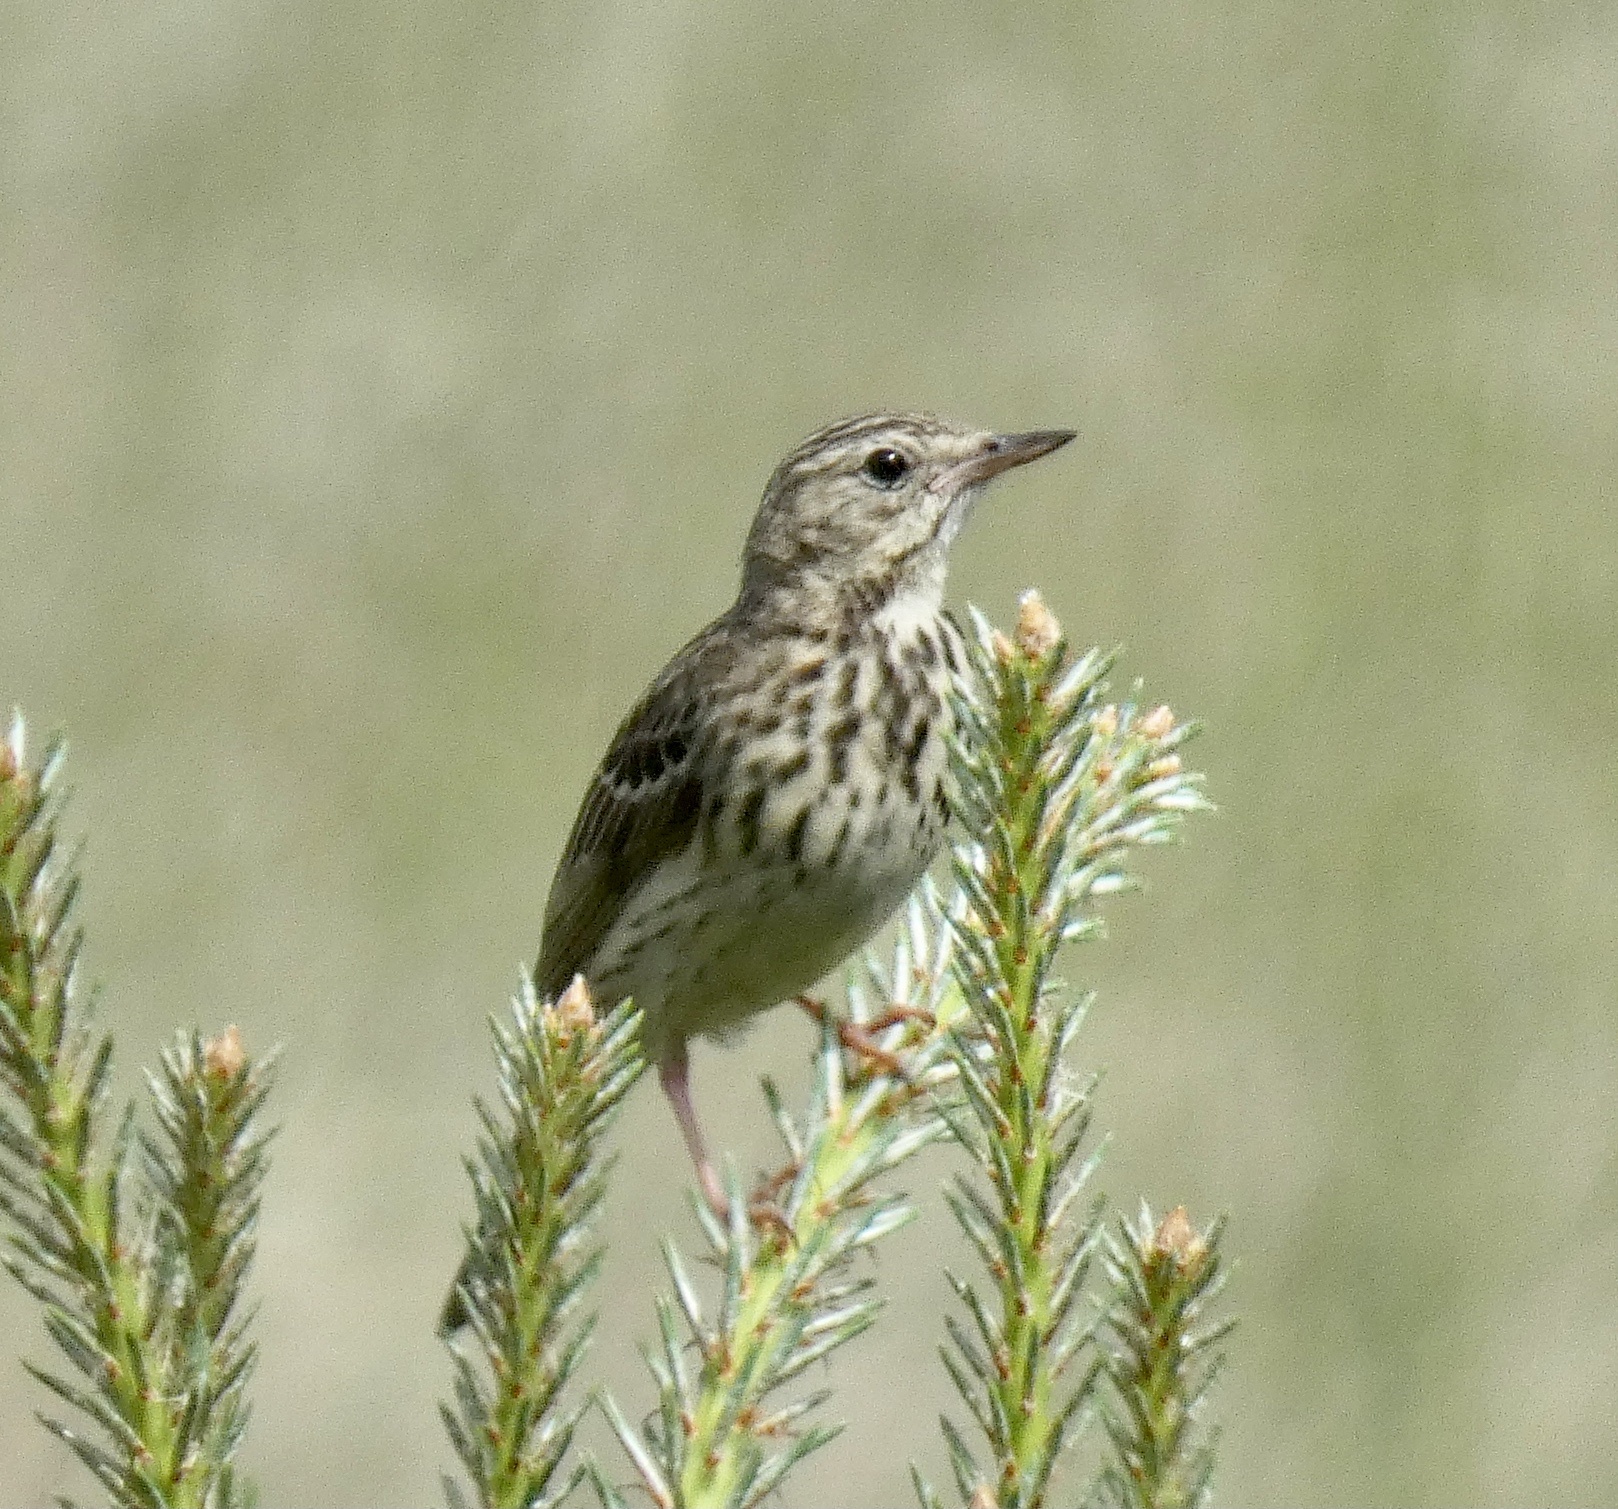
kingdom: Animalia
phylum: Chordata
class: Aves
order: Passeriformes
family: Motacillidae
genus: Anthus
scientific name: Anthus trivialis
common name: Tree pipit
